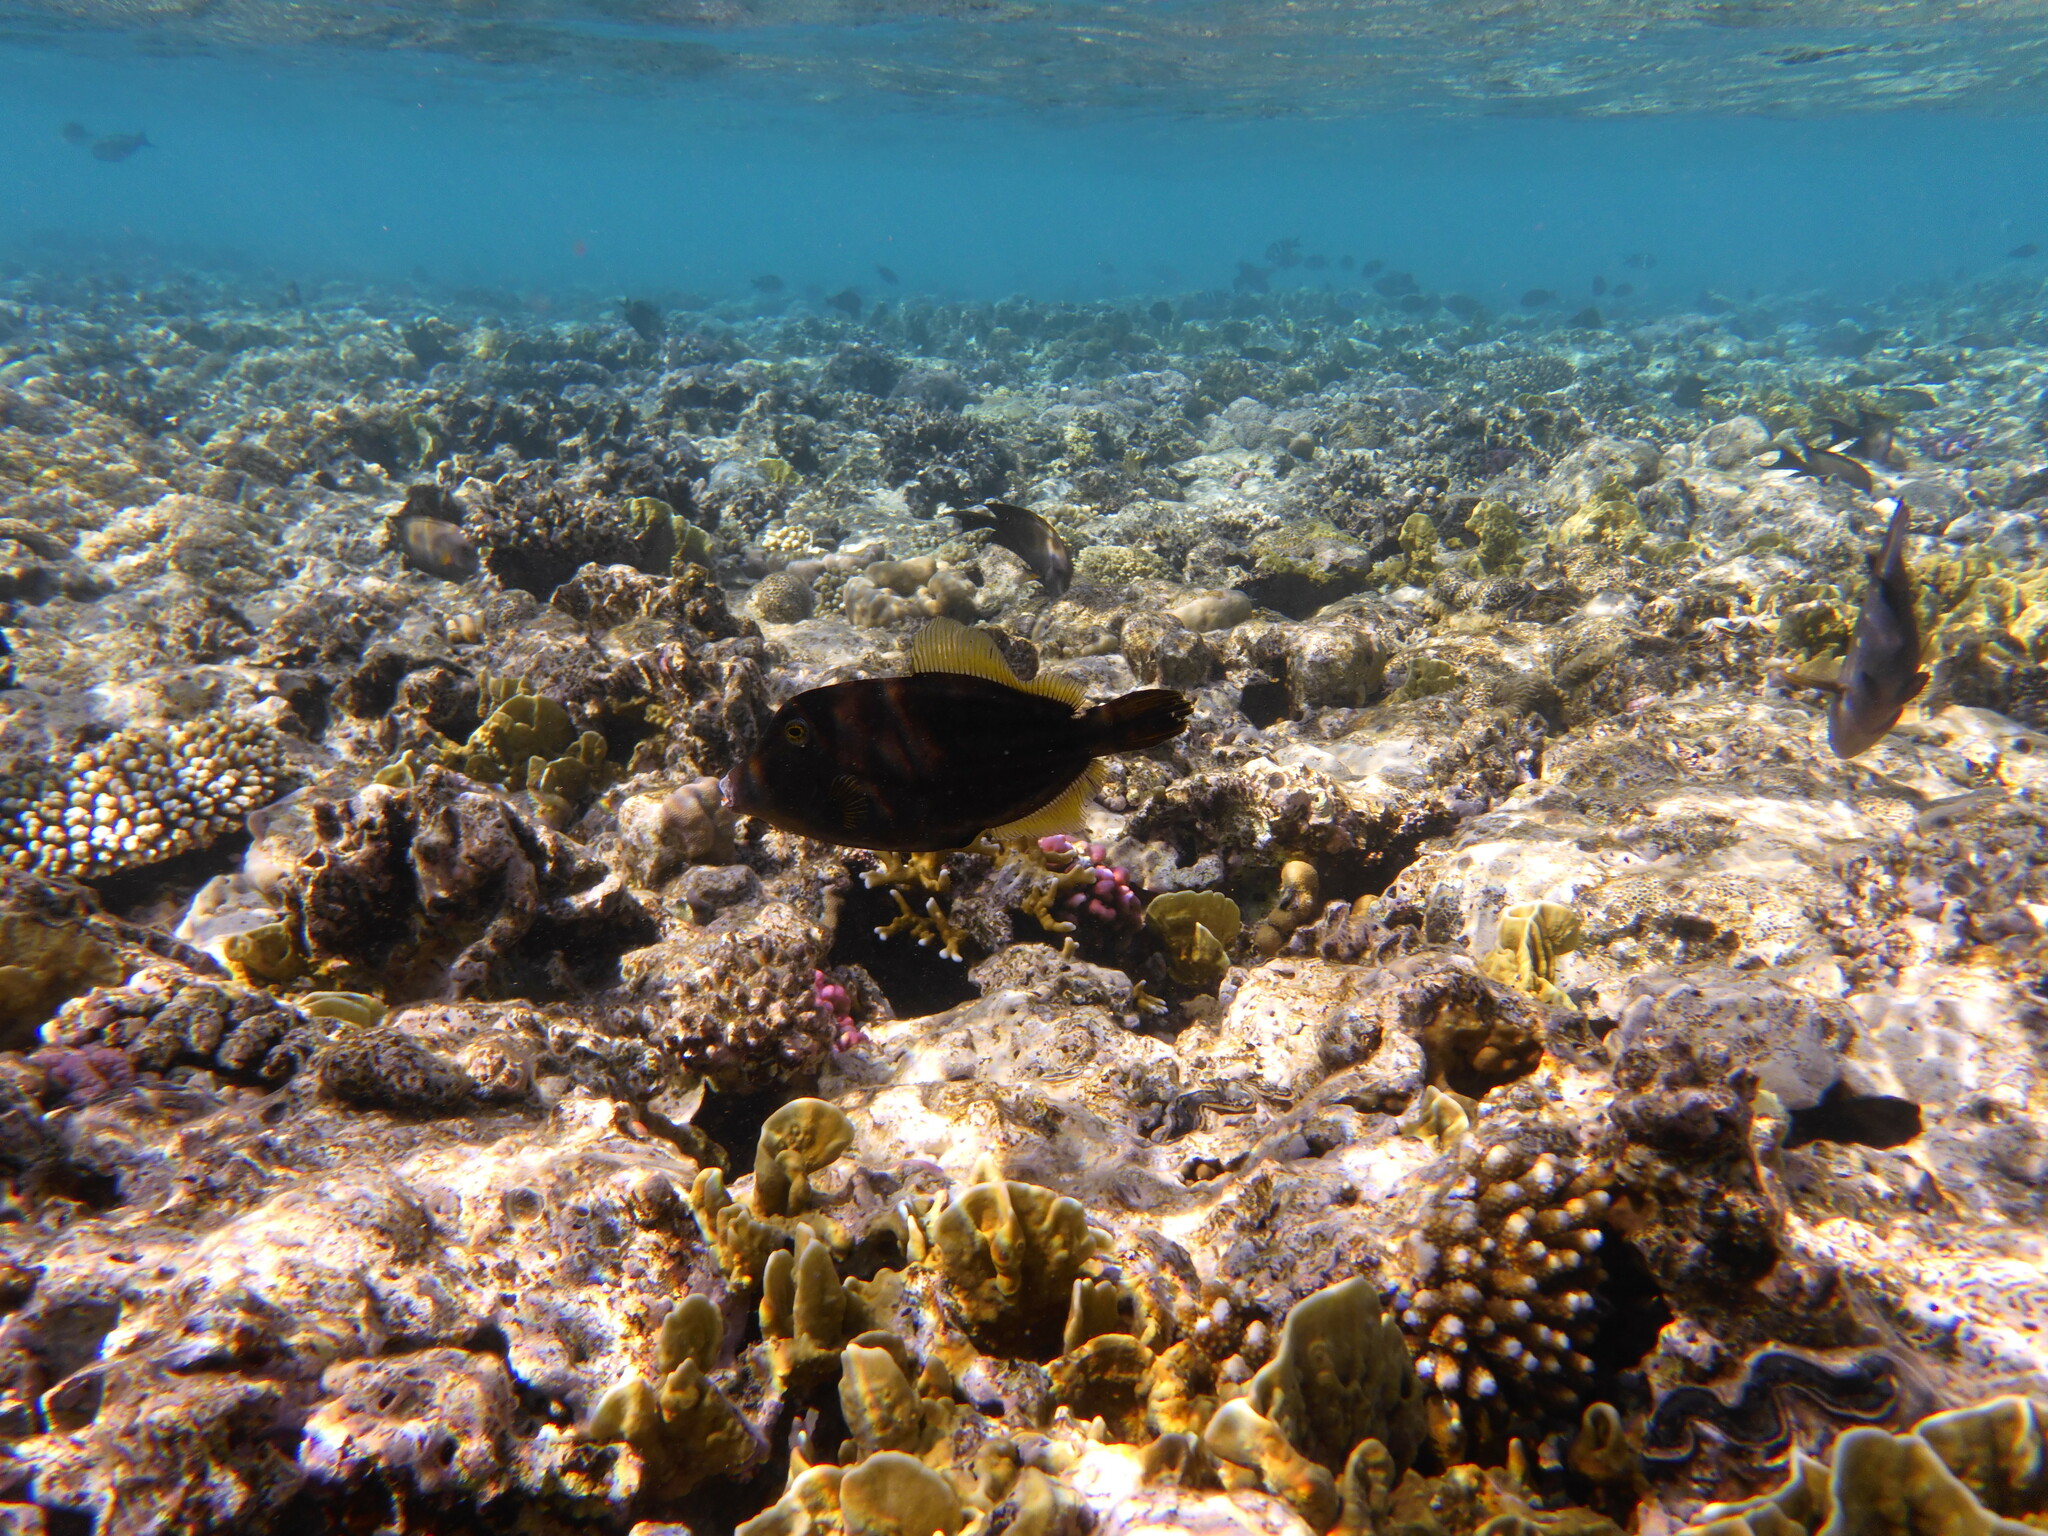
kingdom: Animalia
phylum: Chordata
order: Tetraodontiformes
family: Monacanthidae
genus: Amanses
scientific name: Amanses scopas
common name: Broom filefish
